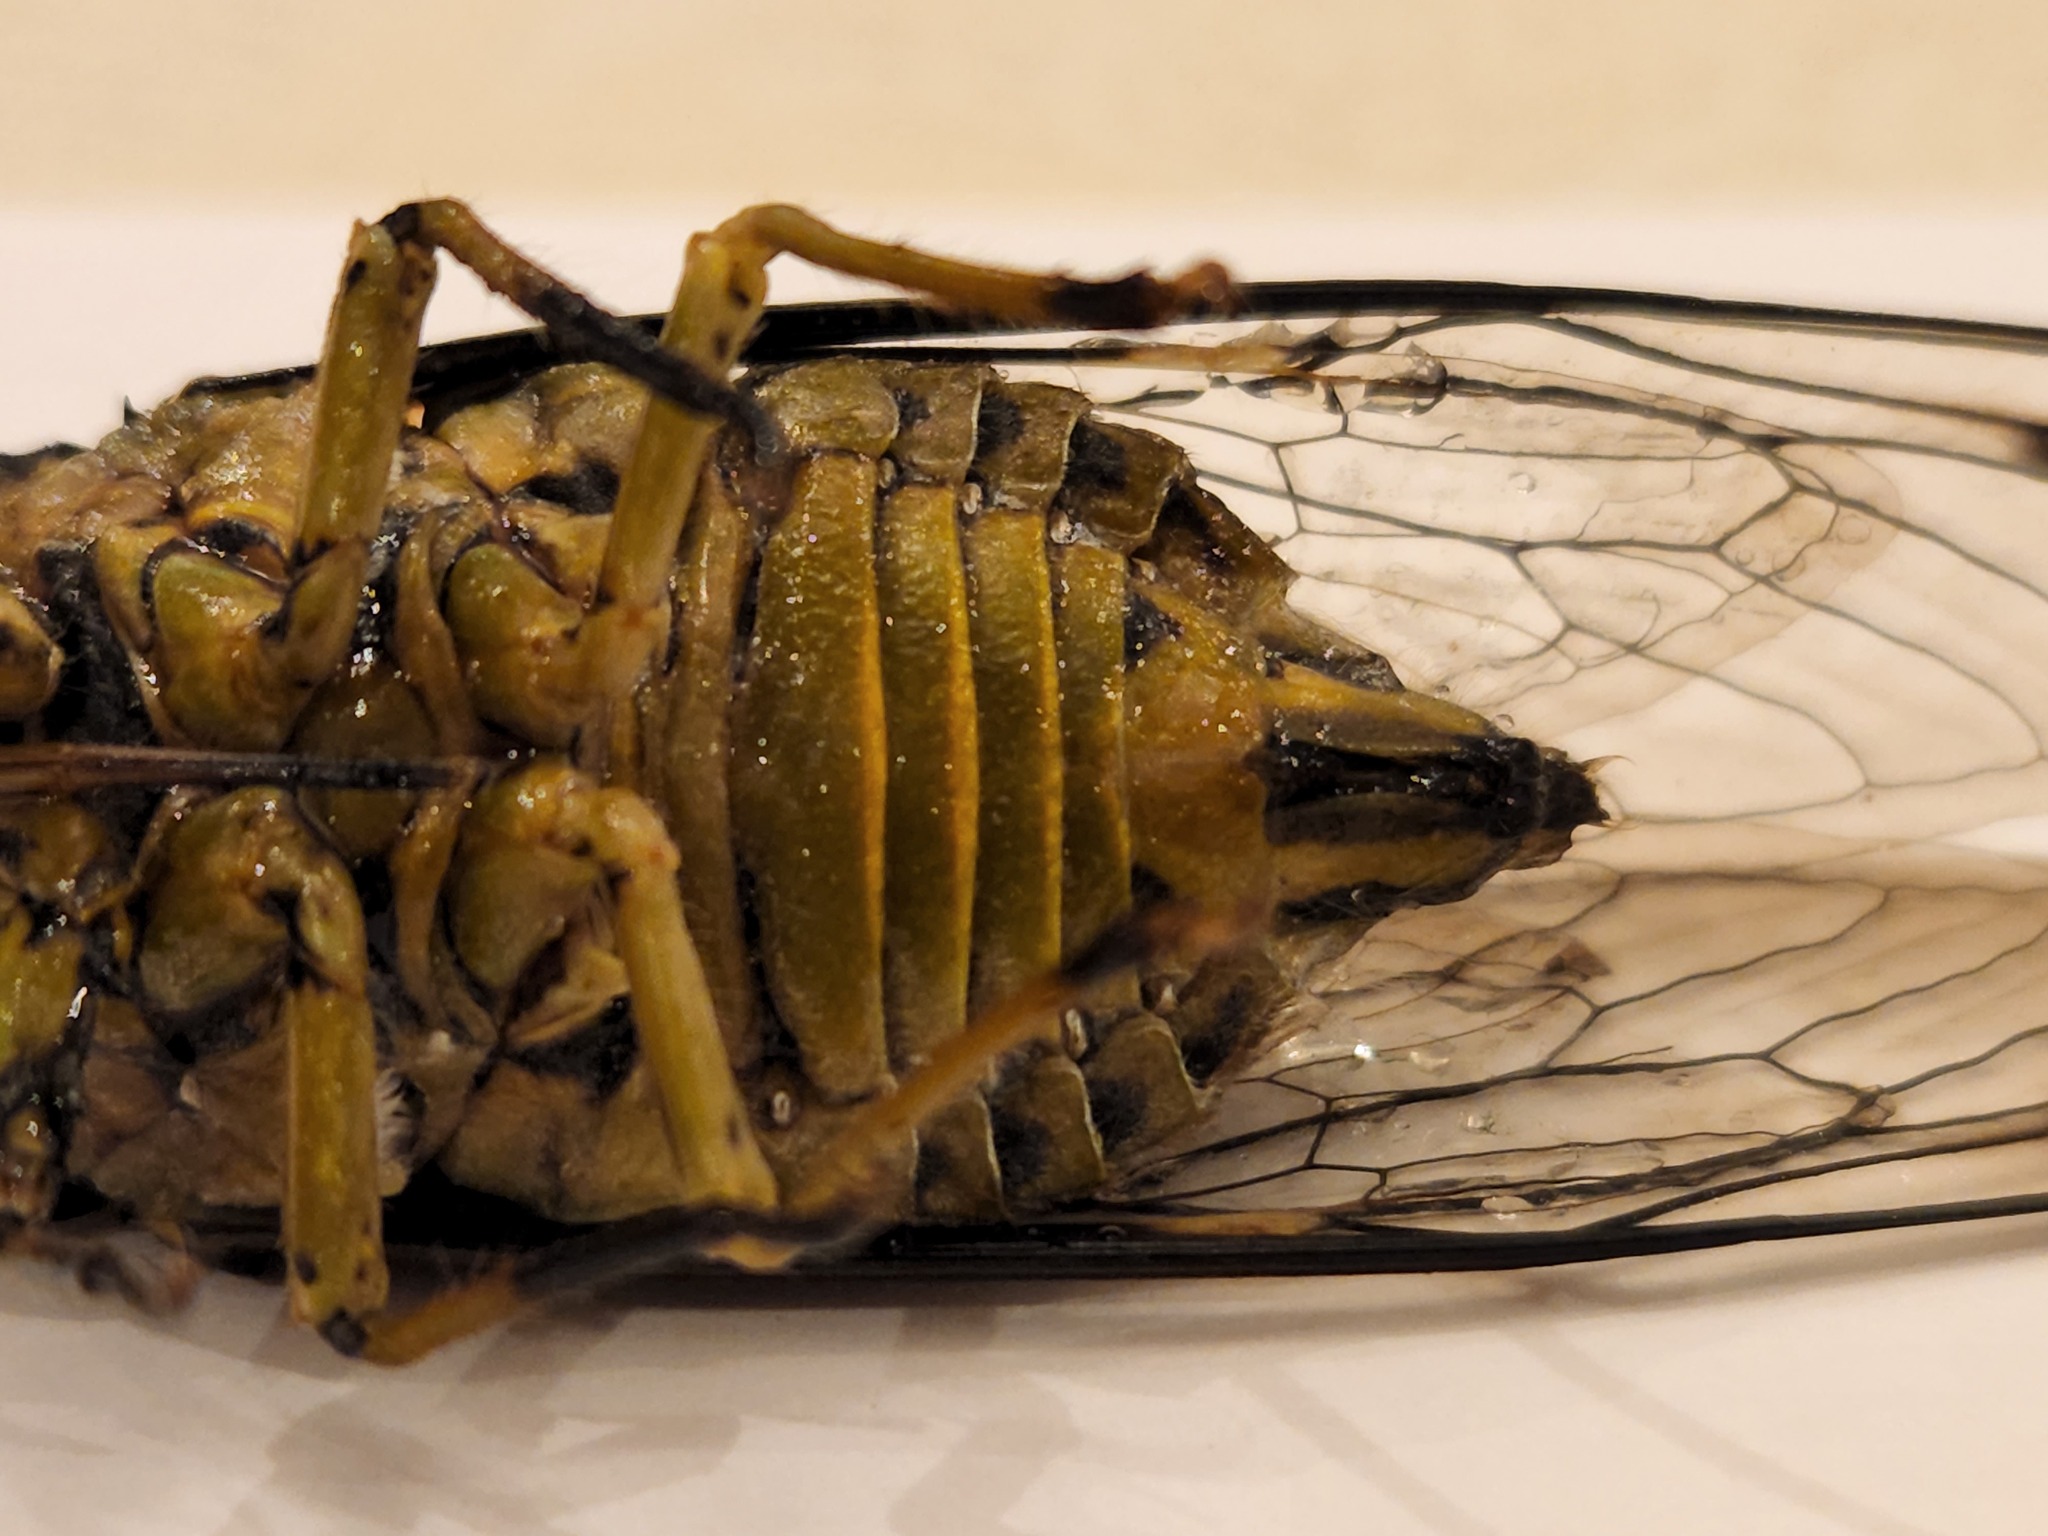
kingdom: Animalia
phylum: Arthropoda
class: Insecta
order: Hemiptera
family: Cicadidae
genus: Quesada
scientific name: Quesada gigas
